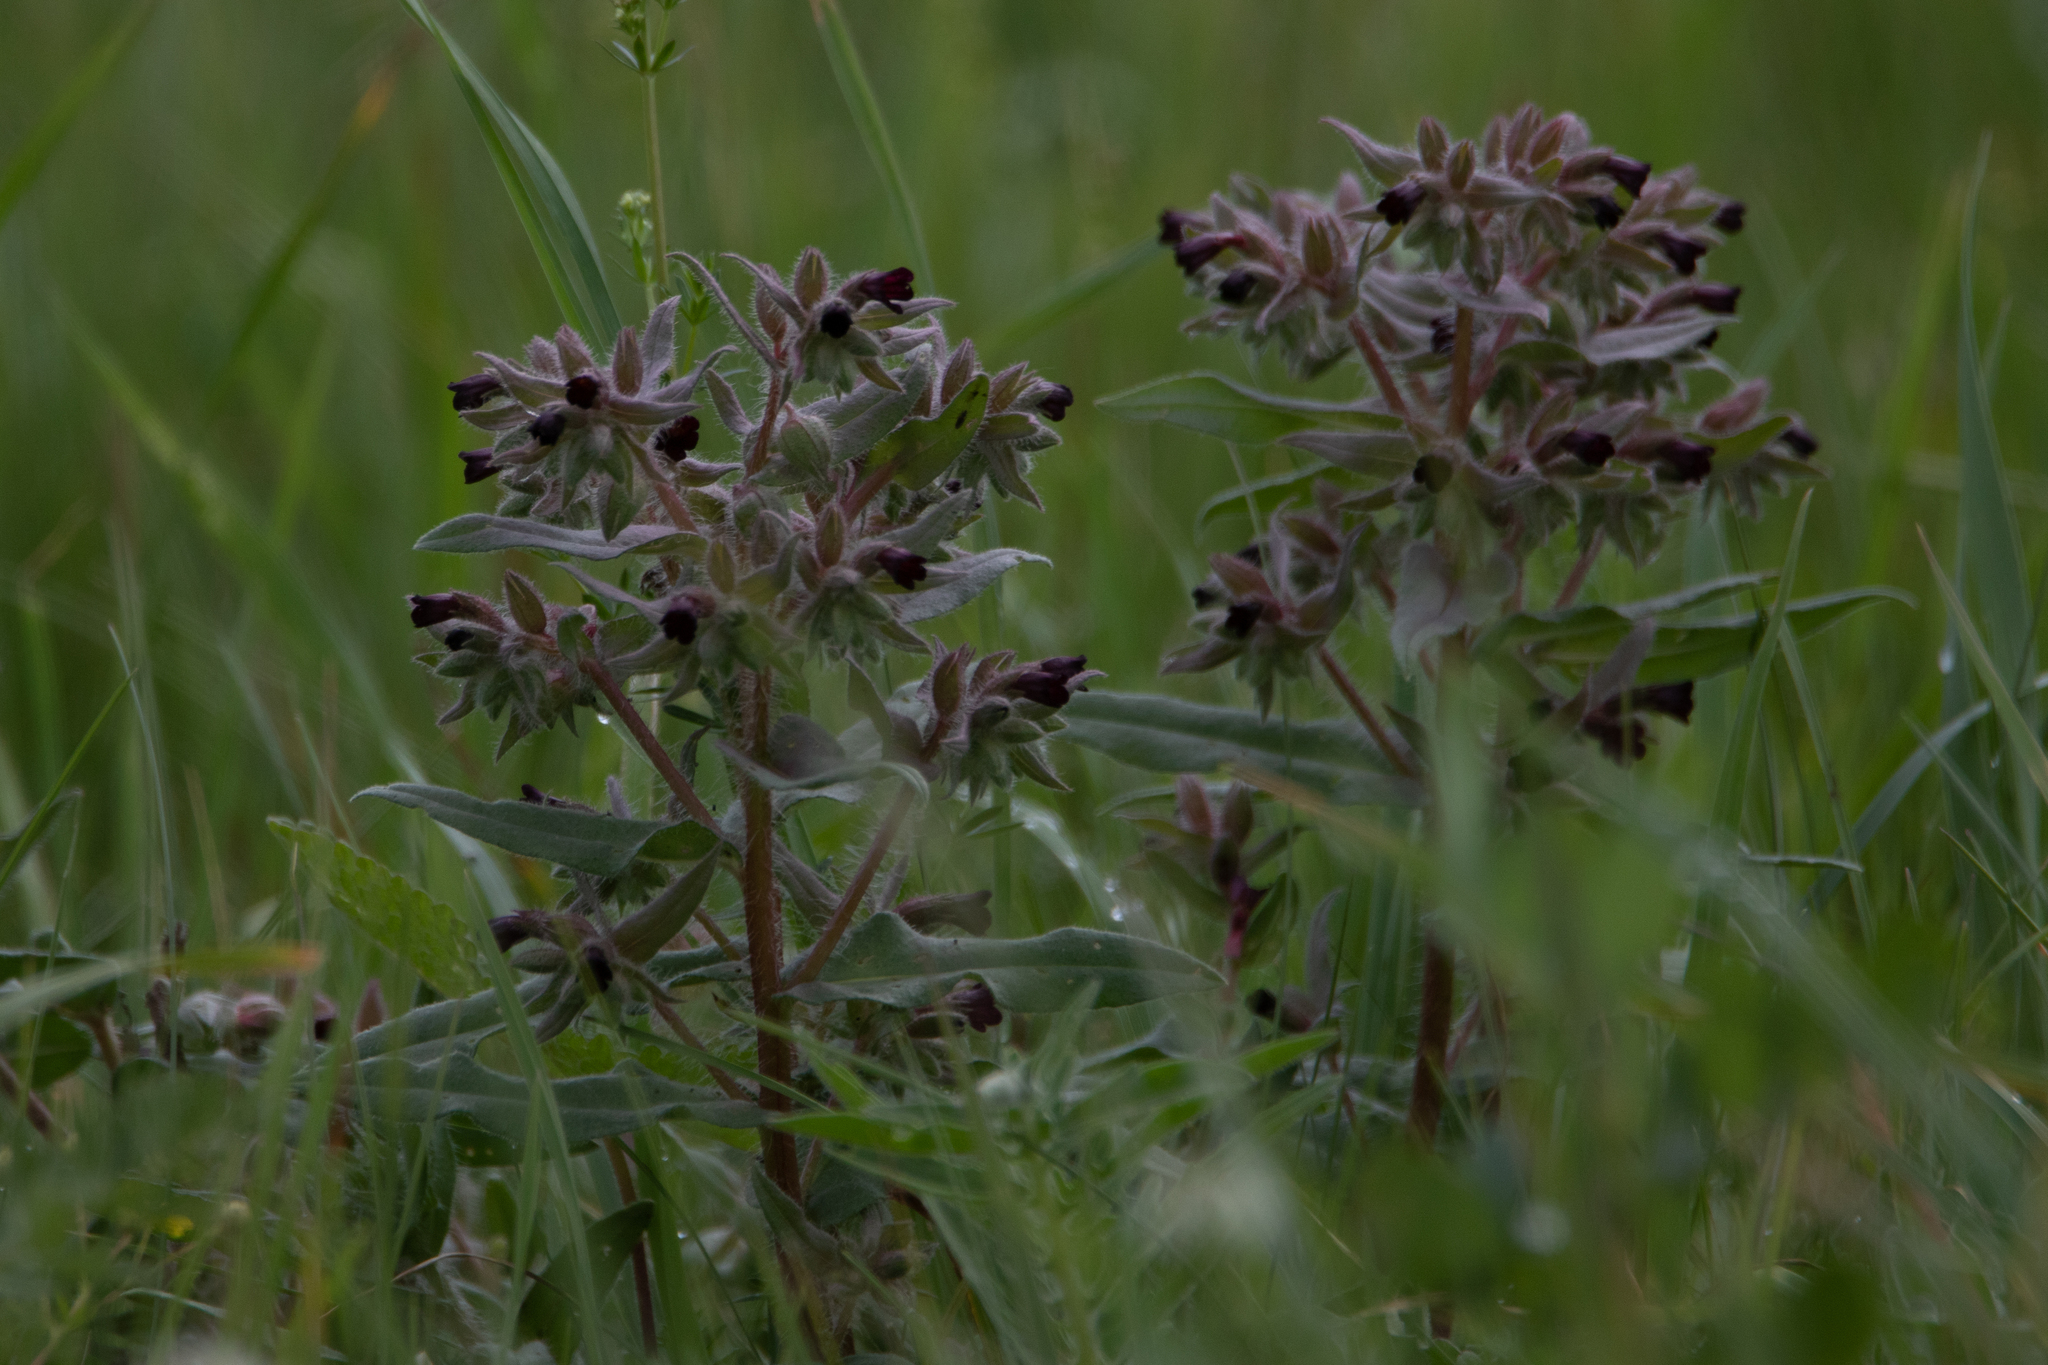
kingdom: Plantae
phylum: Tracheophyta
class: Magnoliopsida
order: Boraginales
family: Boraginaceae
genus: Nonea
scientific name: Nonea pulla
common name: Brown nonea
